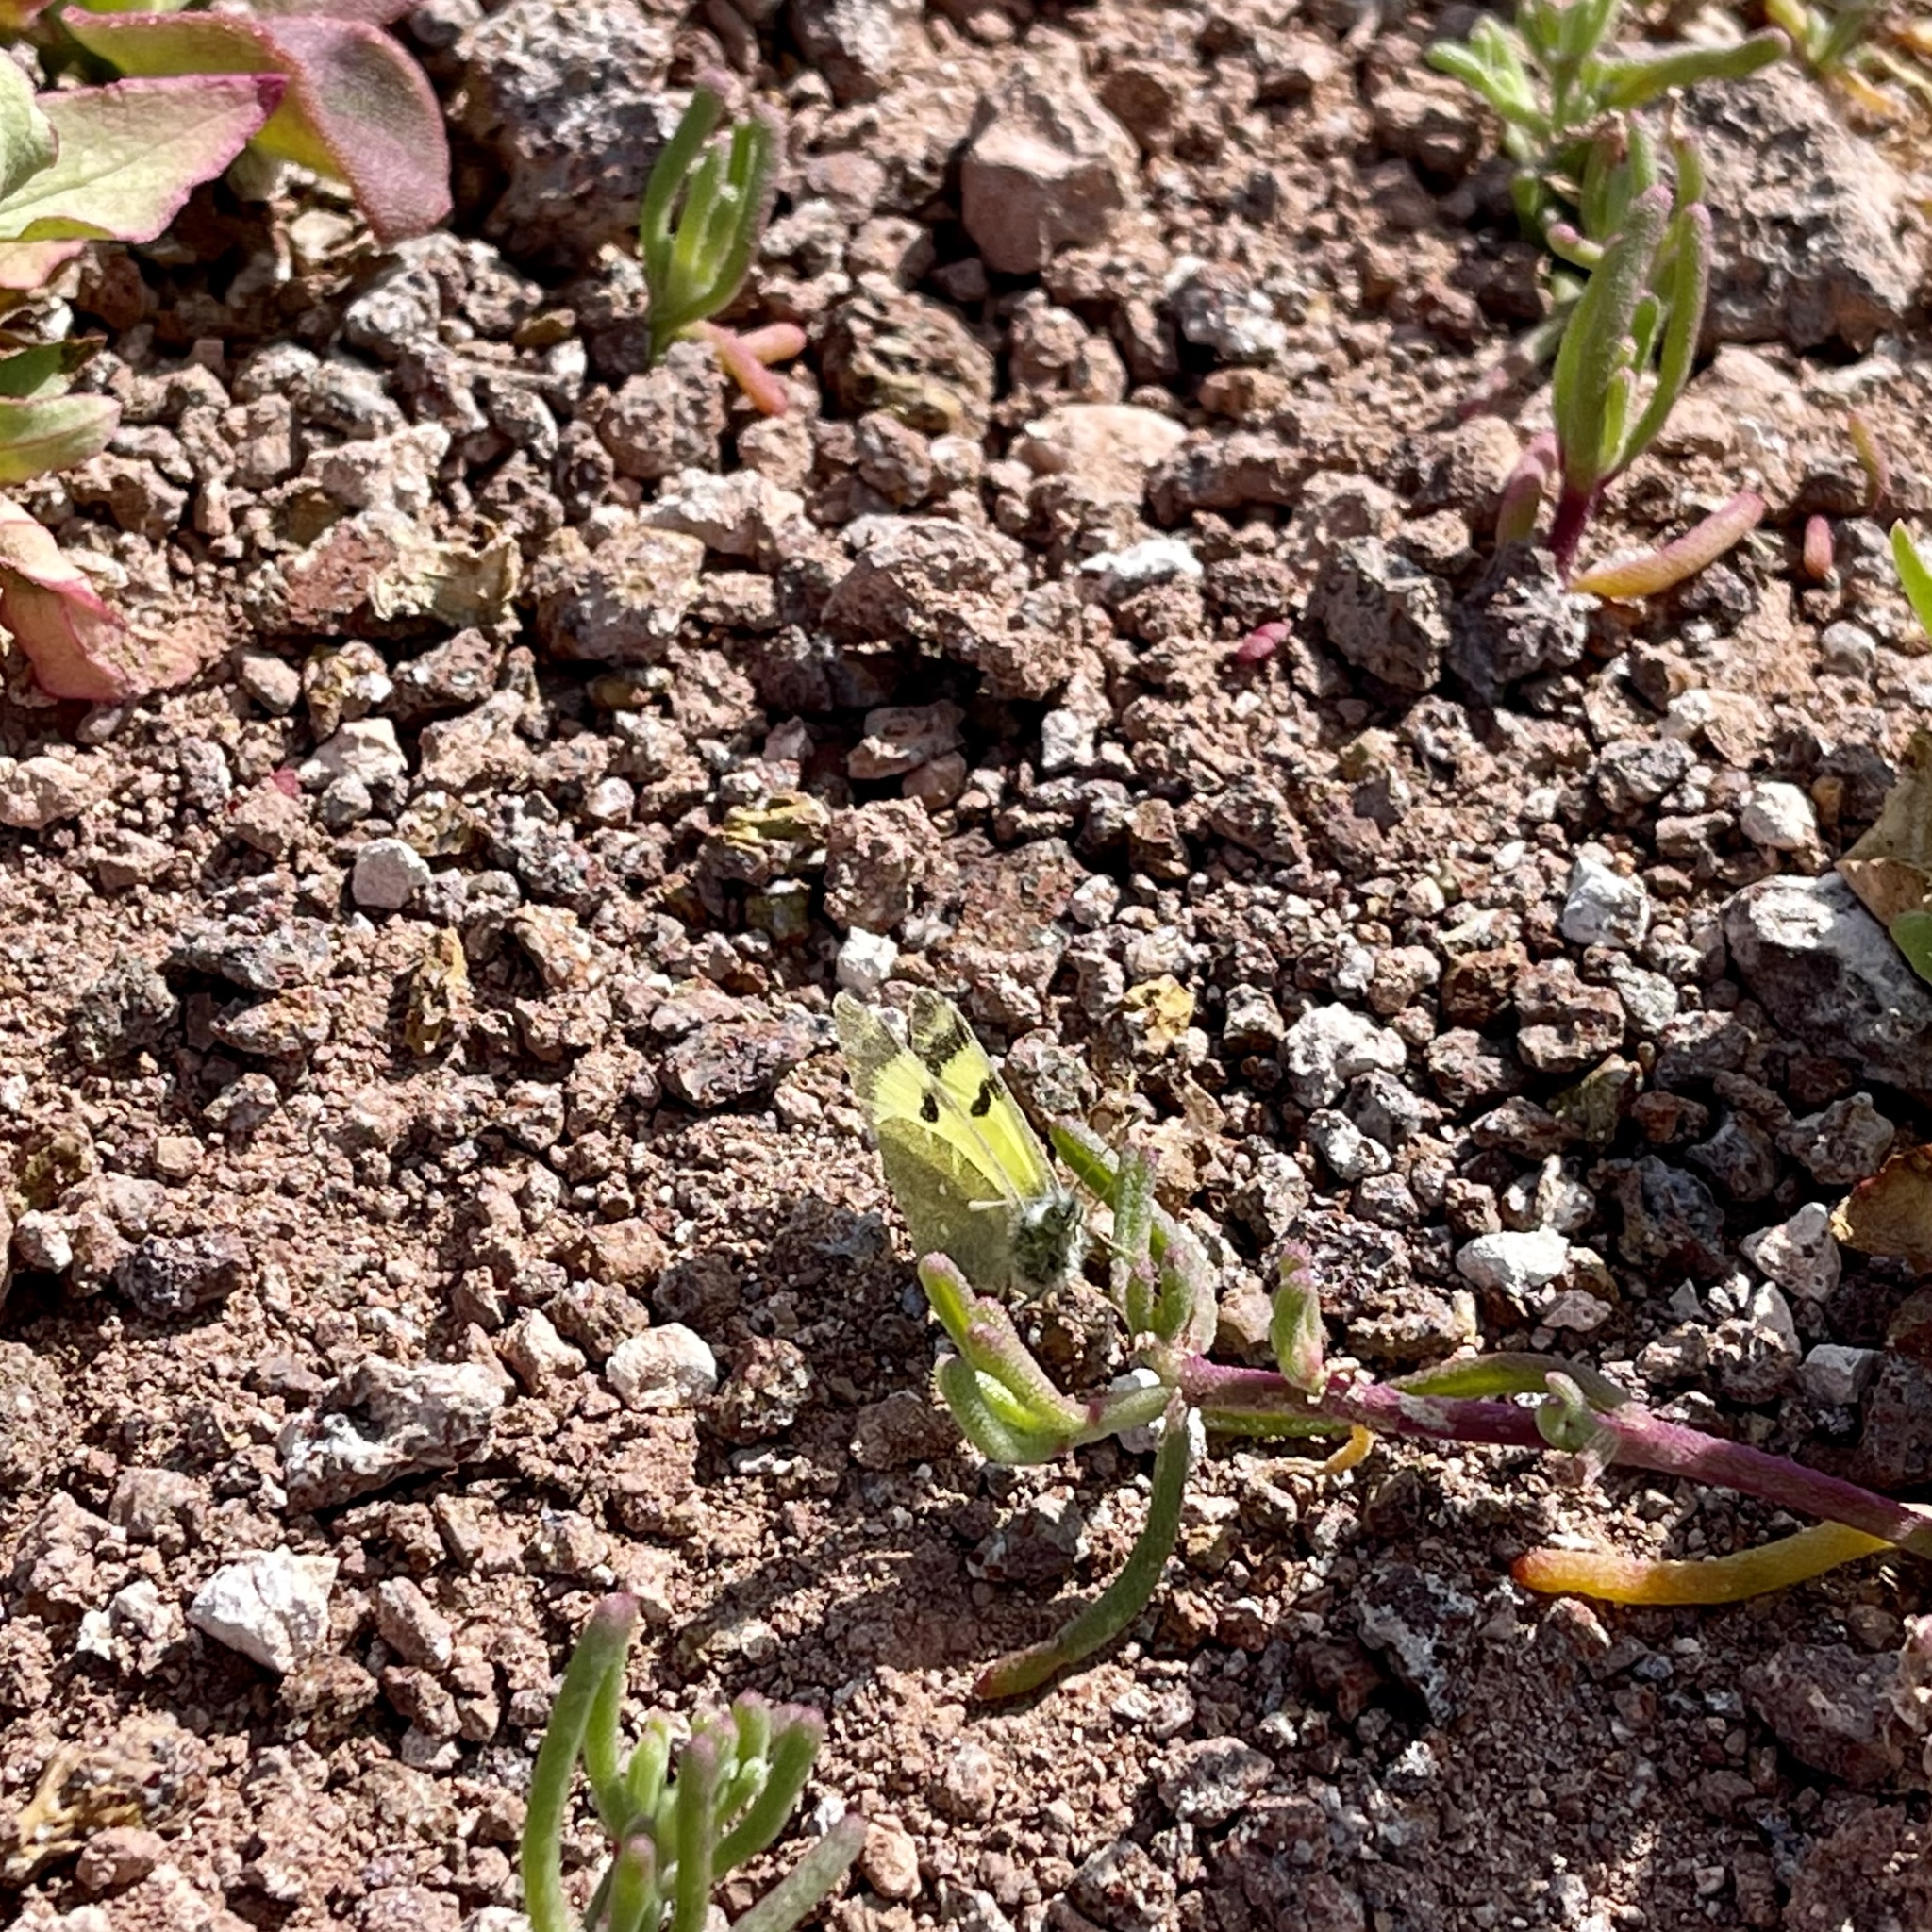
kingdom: Animalia
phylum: Arthropoda
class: Insecta
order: Lepidoptera
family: Pieridae
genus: Elphinstonia
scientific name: Elphinstonia charlonia
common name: Greenish black-tip
